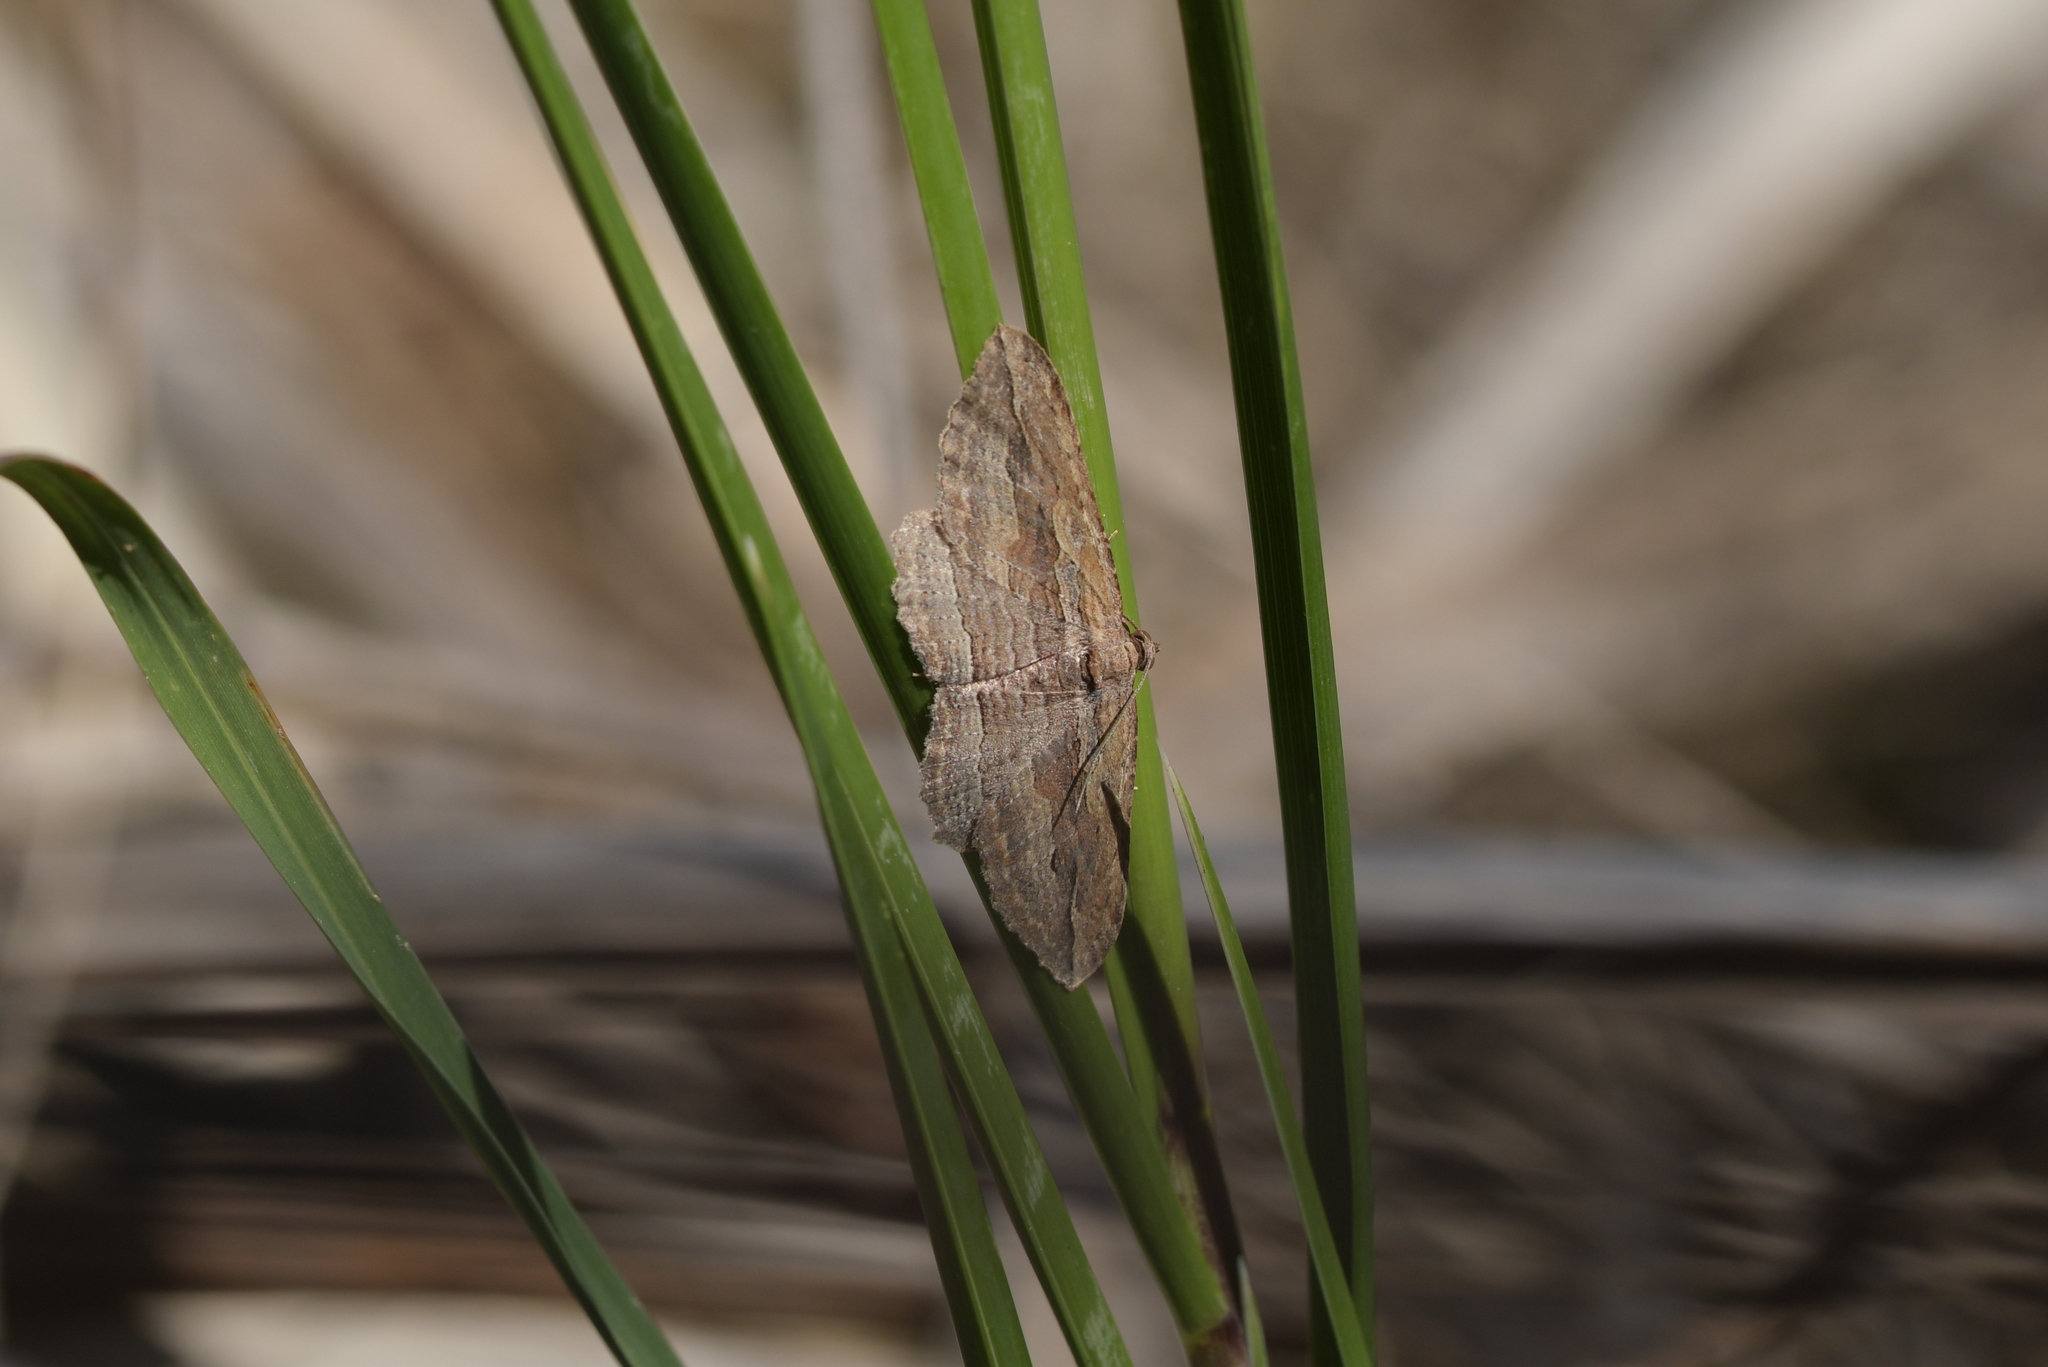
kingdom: Animalia
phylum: Arthropoda
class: Insecta
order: Lepidoptera
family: Geometridae
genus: Austrocidaria
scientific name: Austrocidaria gobiata
